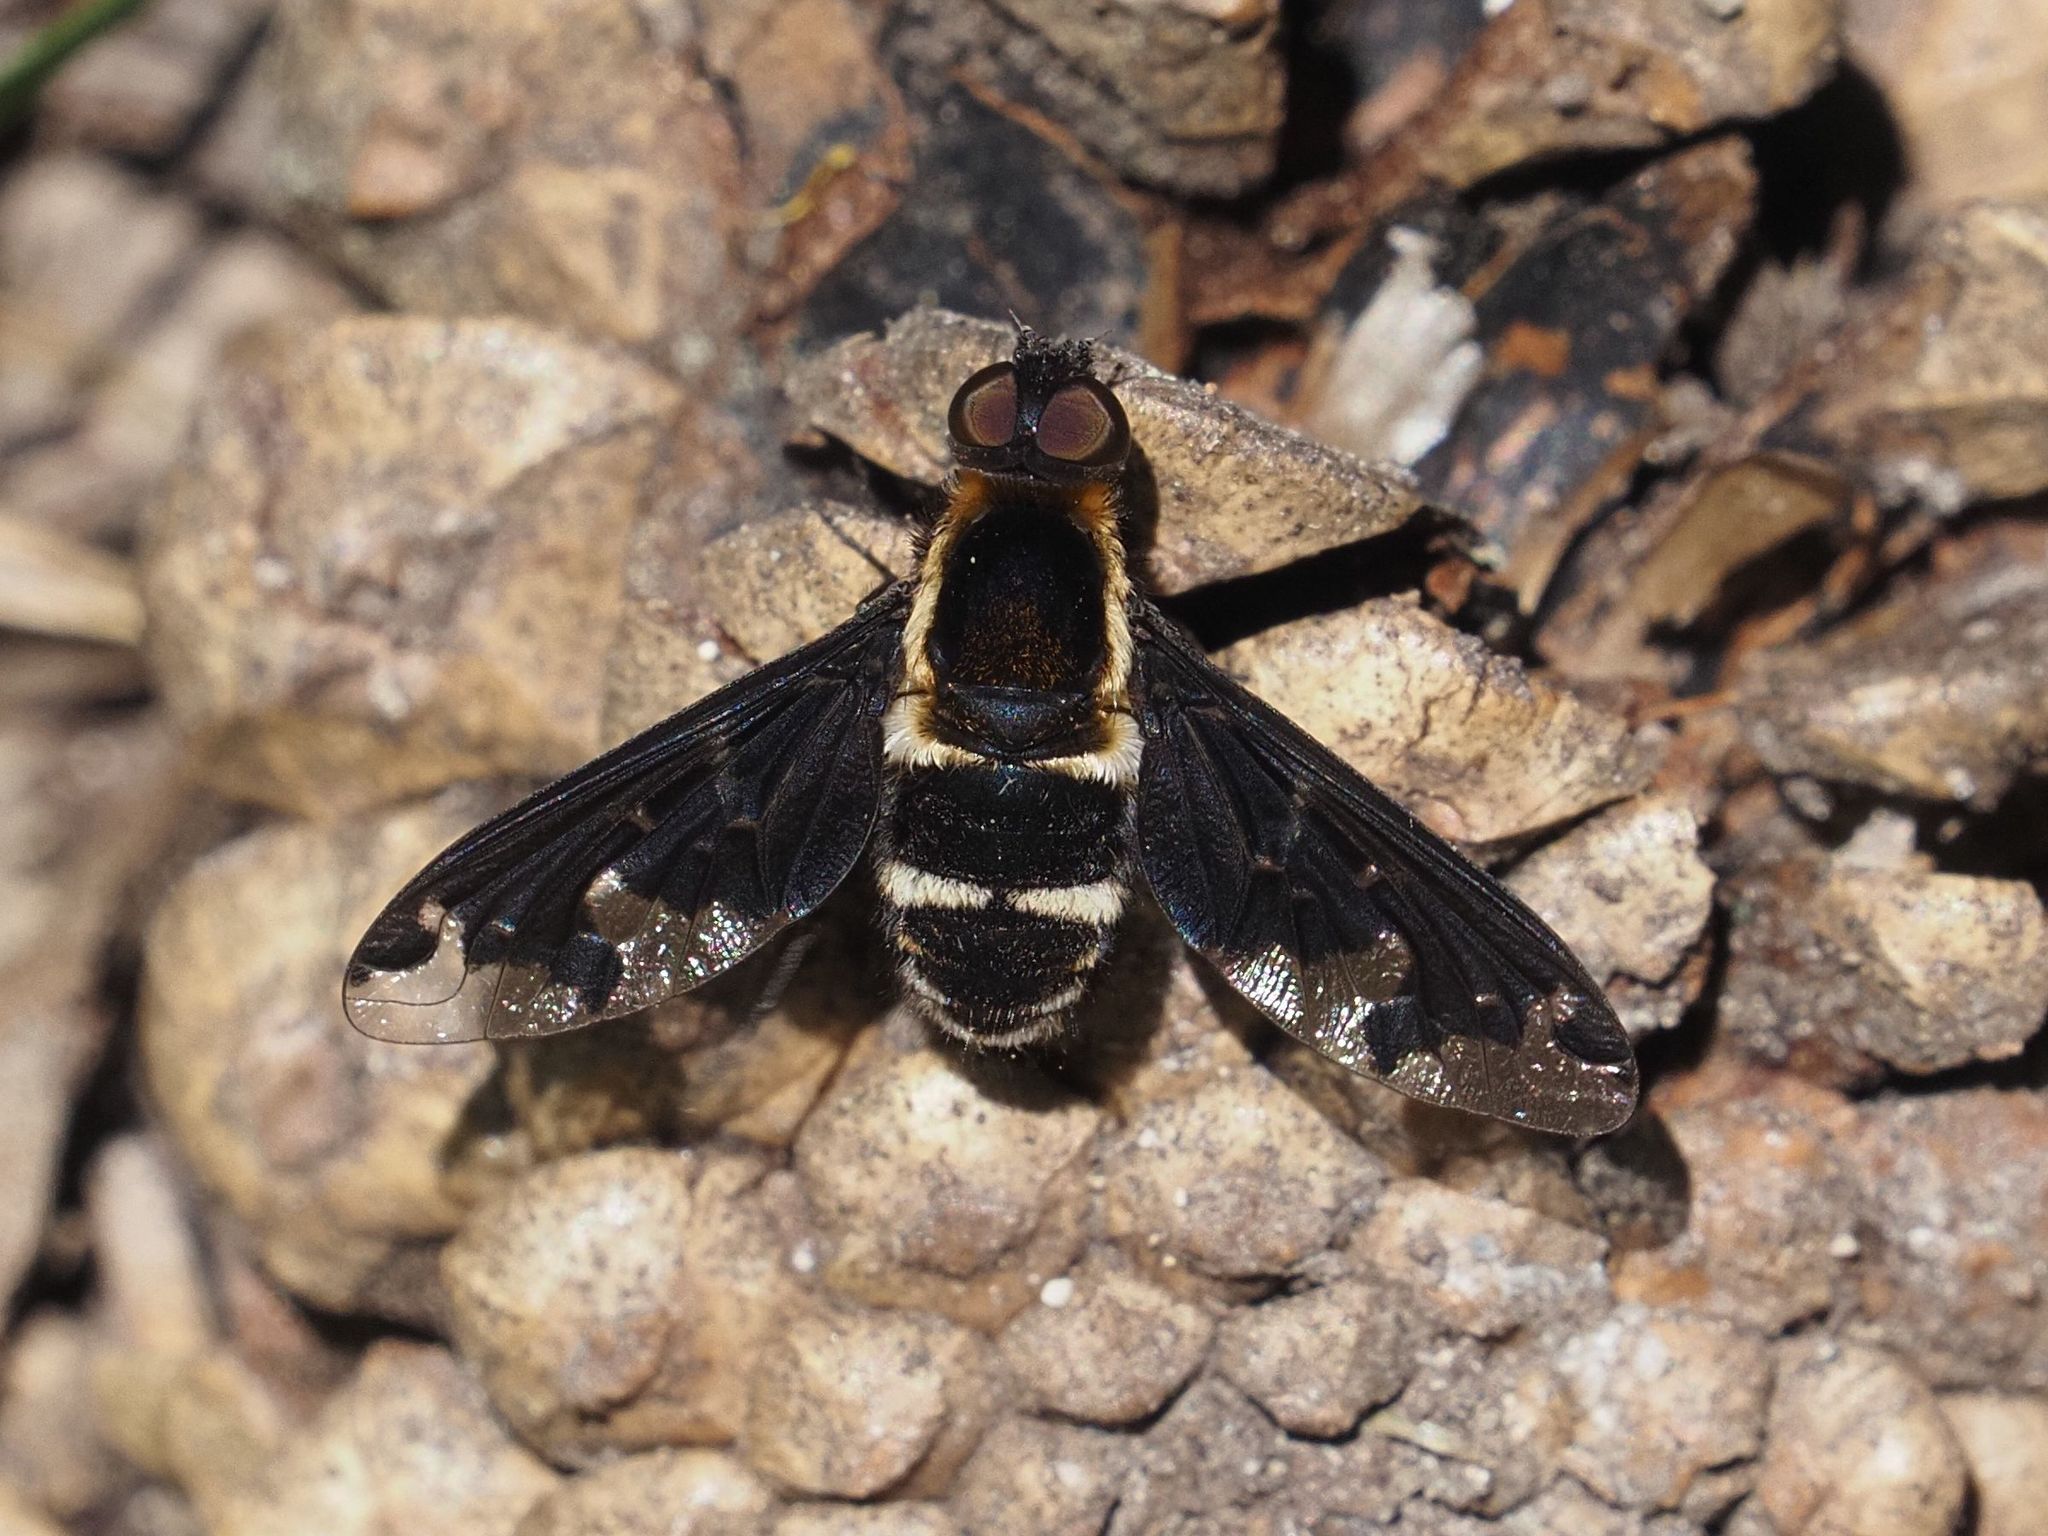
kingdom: Animalia
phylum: Arthropoda
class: Insecta
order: Diptera
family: Bombyliidae
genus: Hemipenthes
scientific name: Hemipenthes maura
